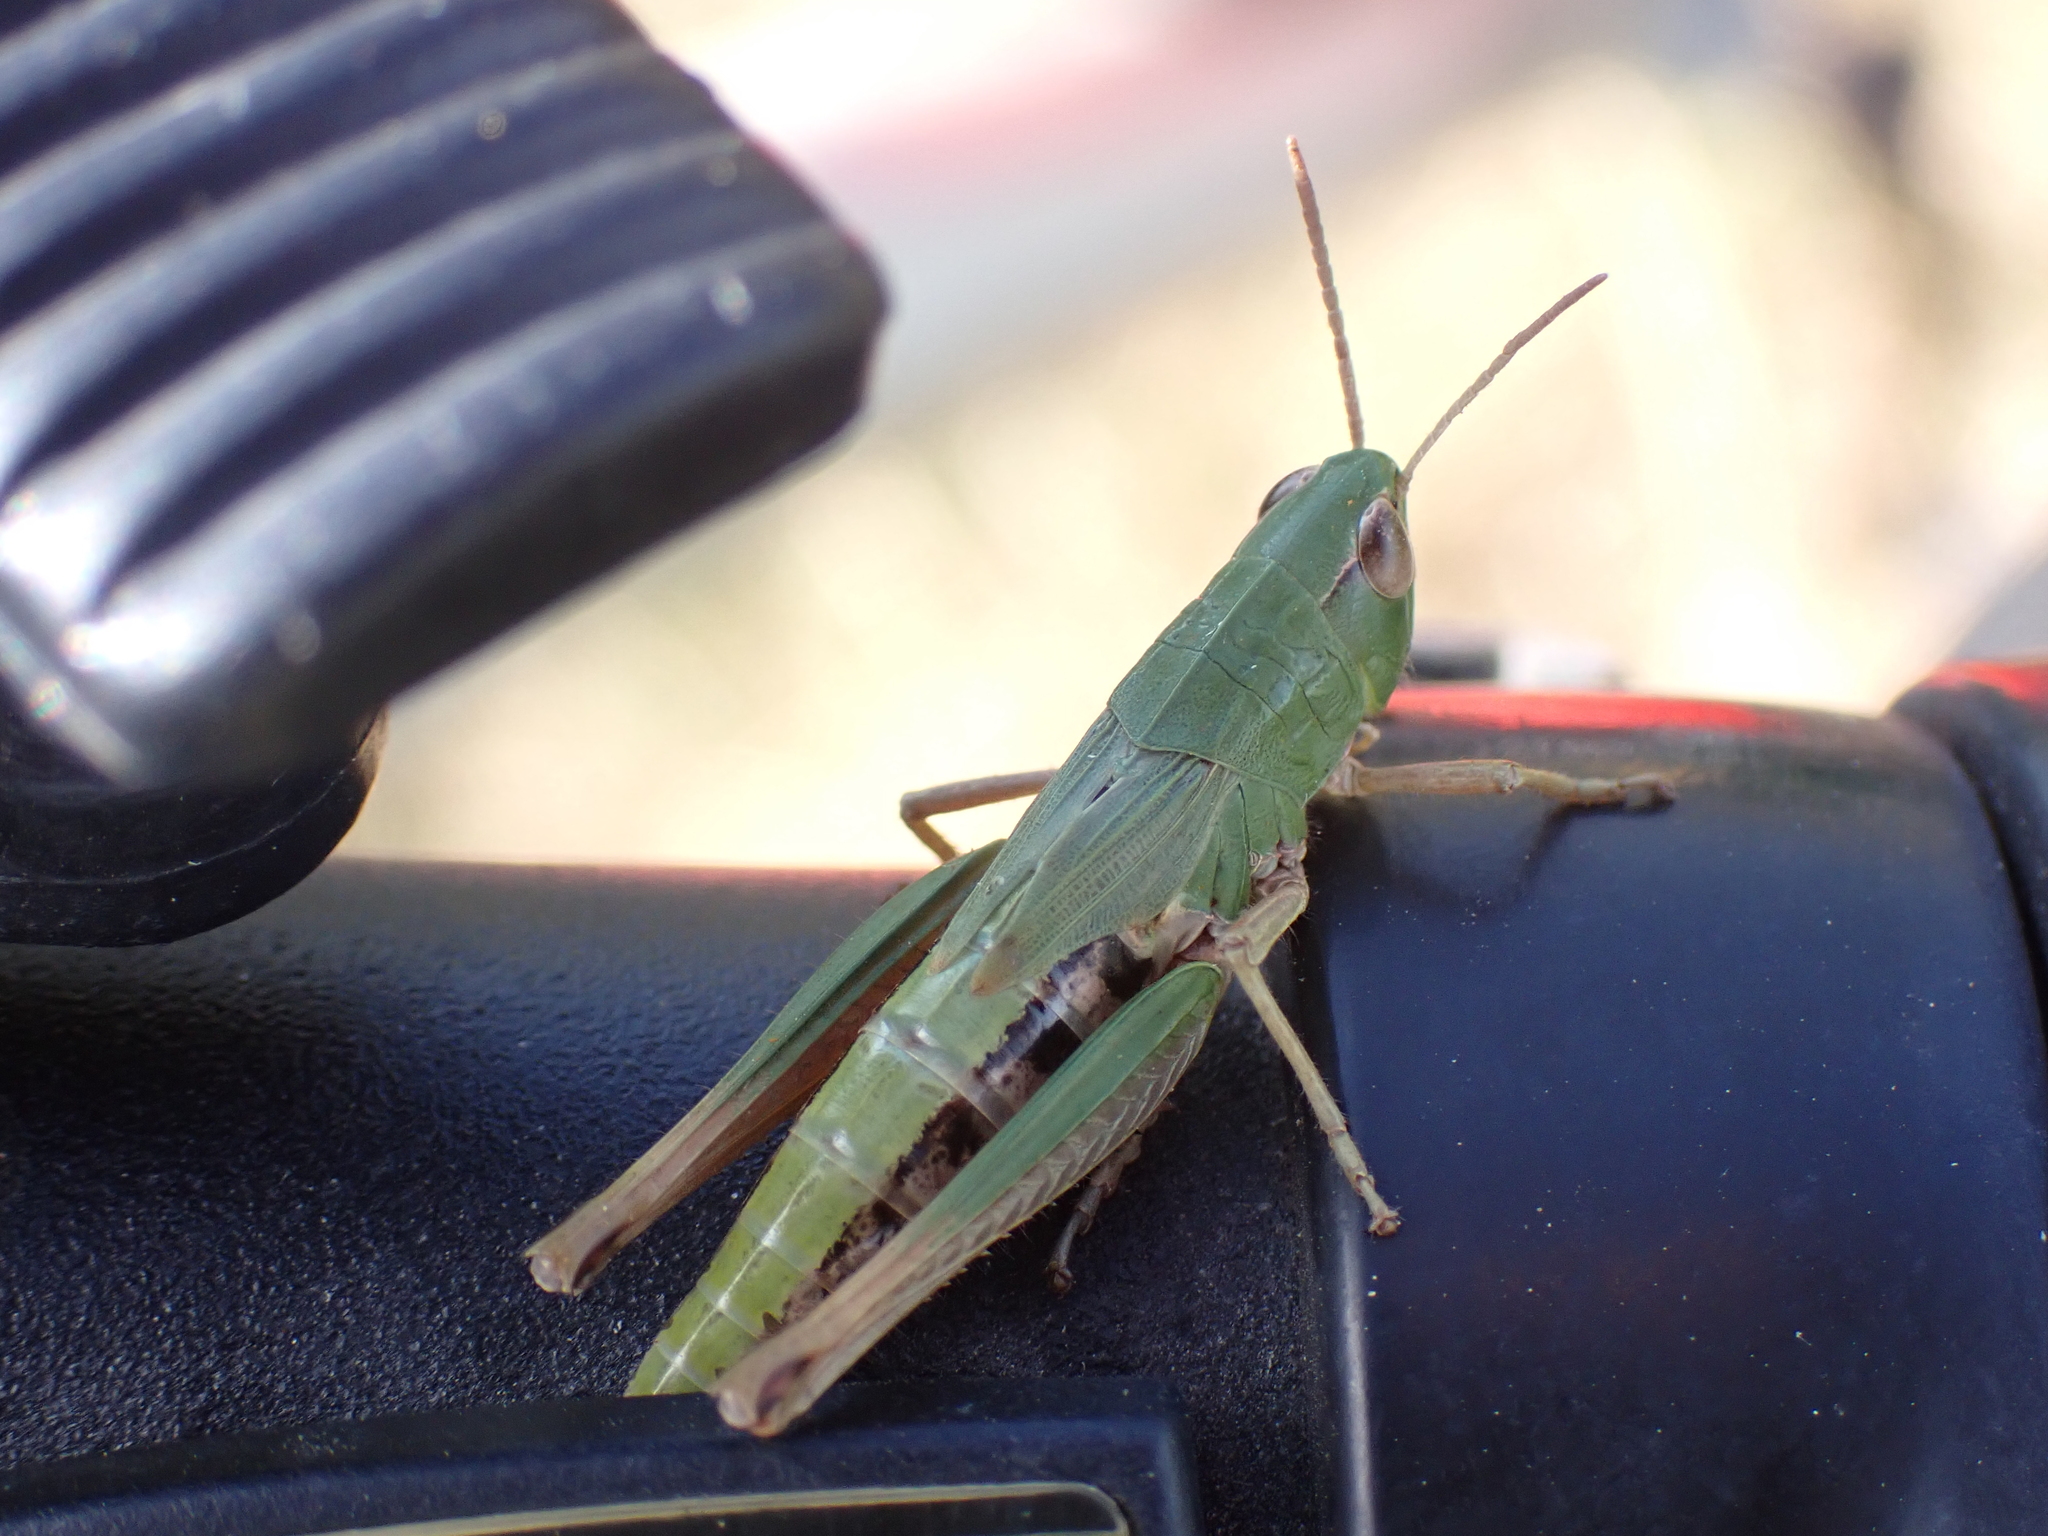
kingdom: Animalia
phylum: Arthropoda
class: Insecta
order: Orthoptera
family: Acrididae
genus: Pseudochorthippus
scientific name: Pseudochorthippus parallelus
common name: Meadow grasshopper
